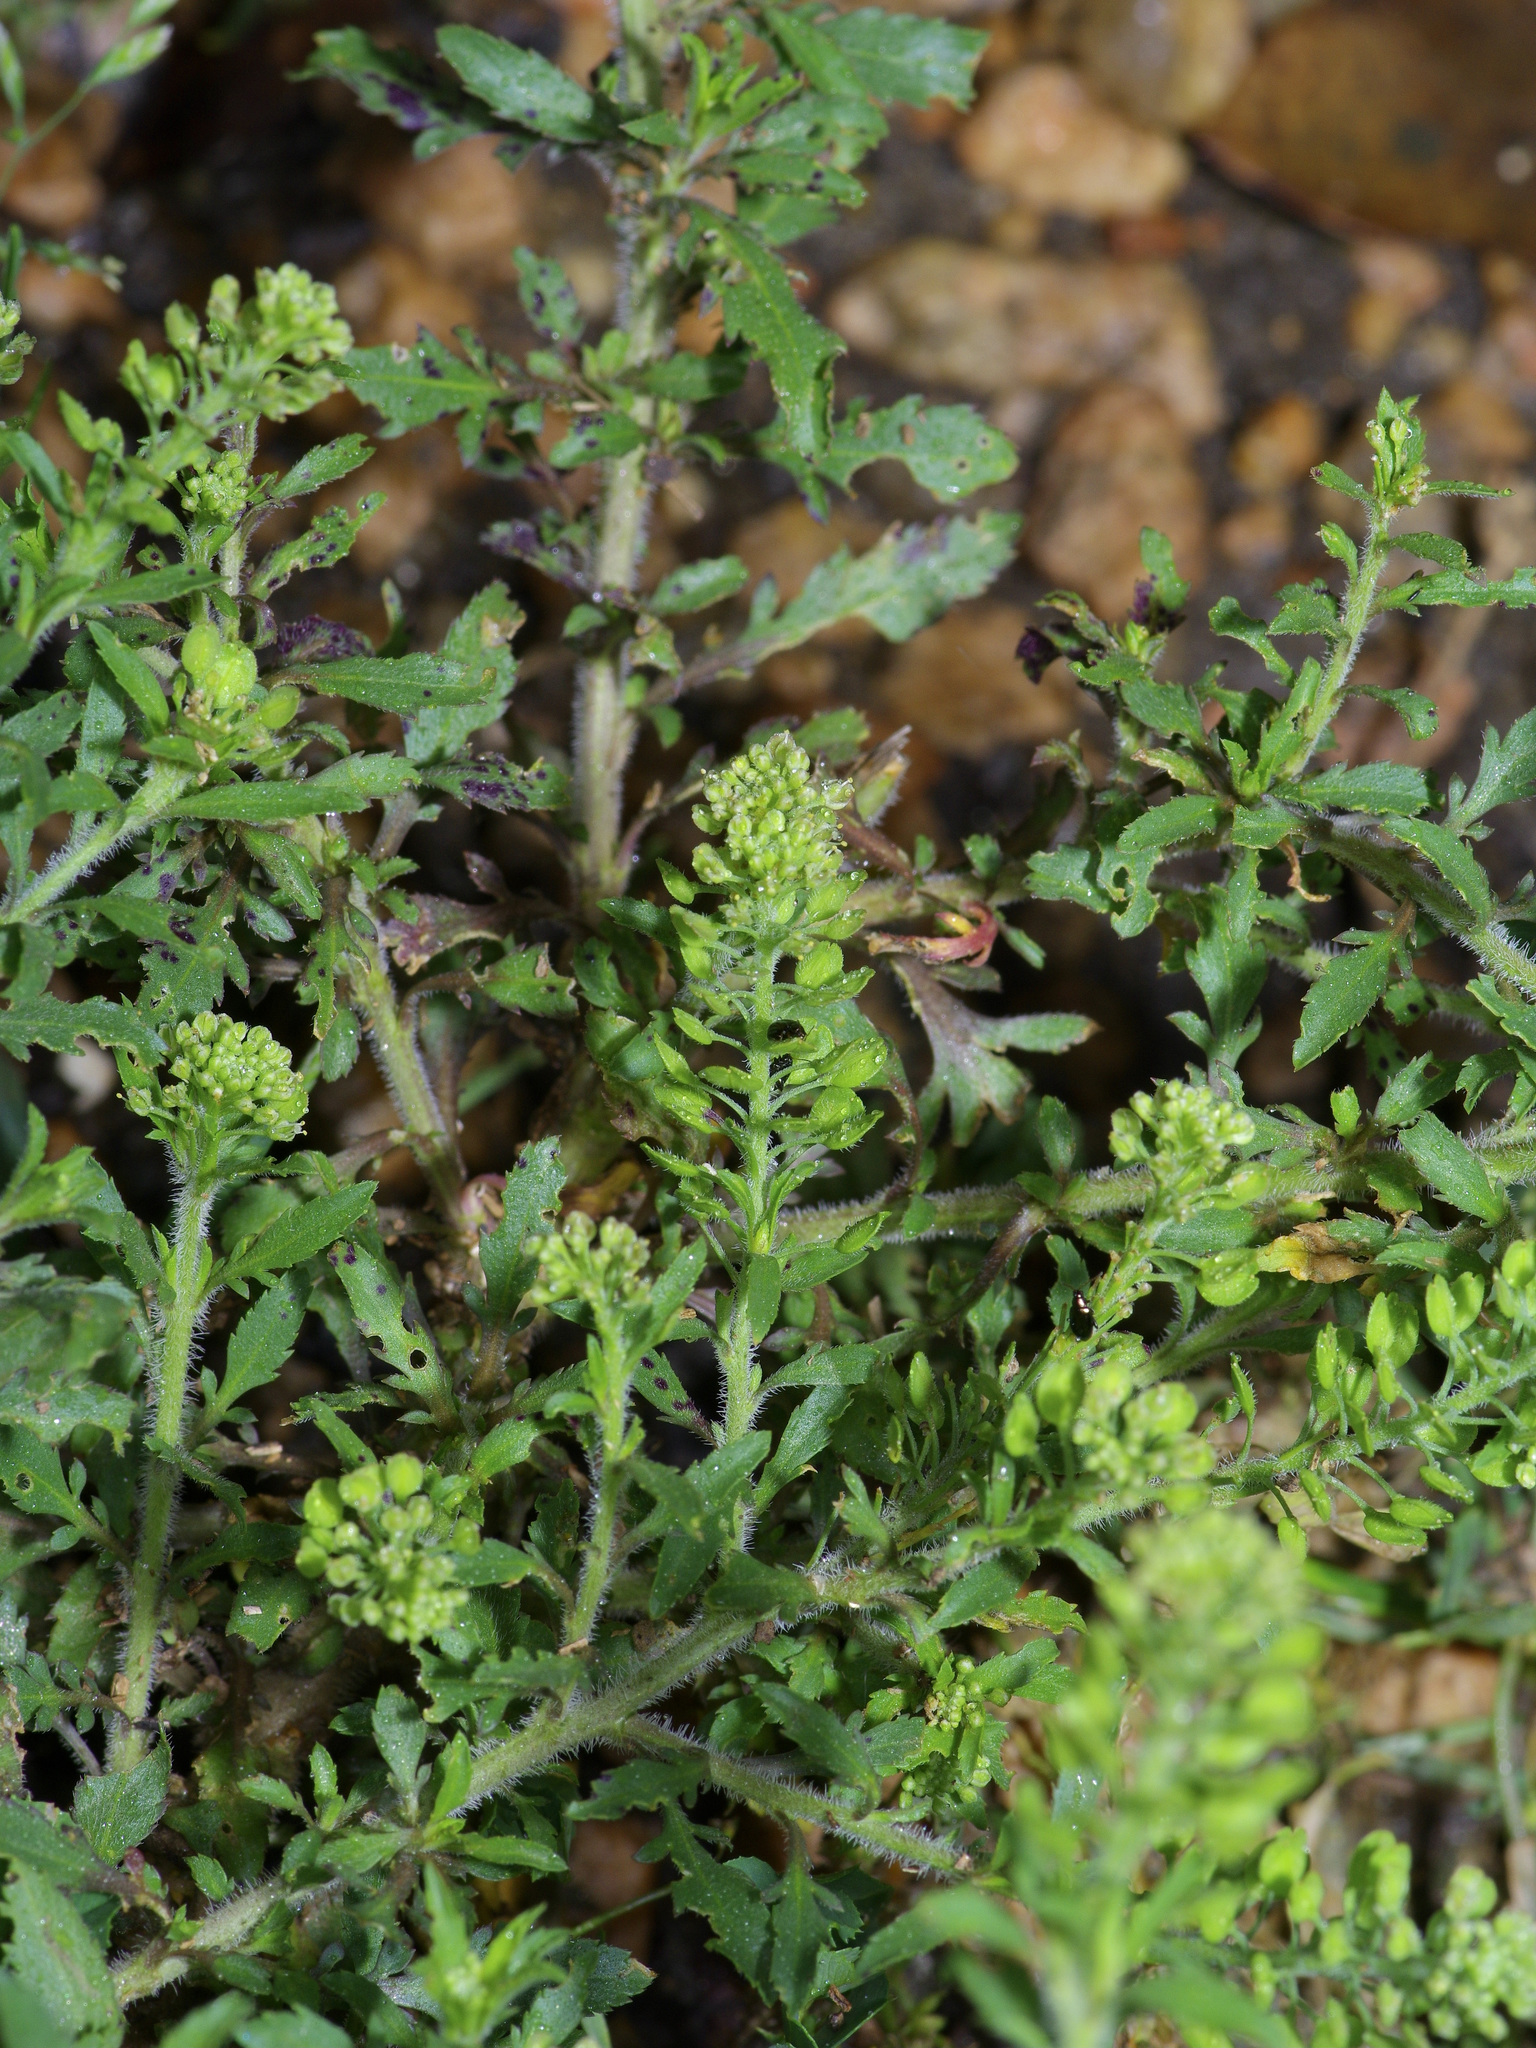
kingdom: Plantae
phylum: Tracheophyta
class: Magnoliopsida
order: Brassicales
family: Brassicaceae
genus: Lepidium
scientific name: Lepidium virginicum
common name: Least pepperwort
